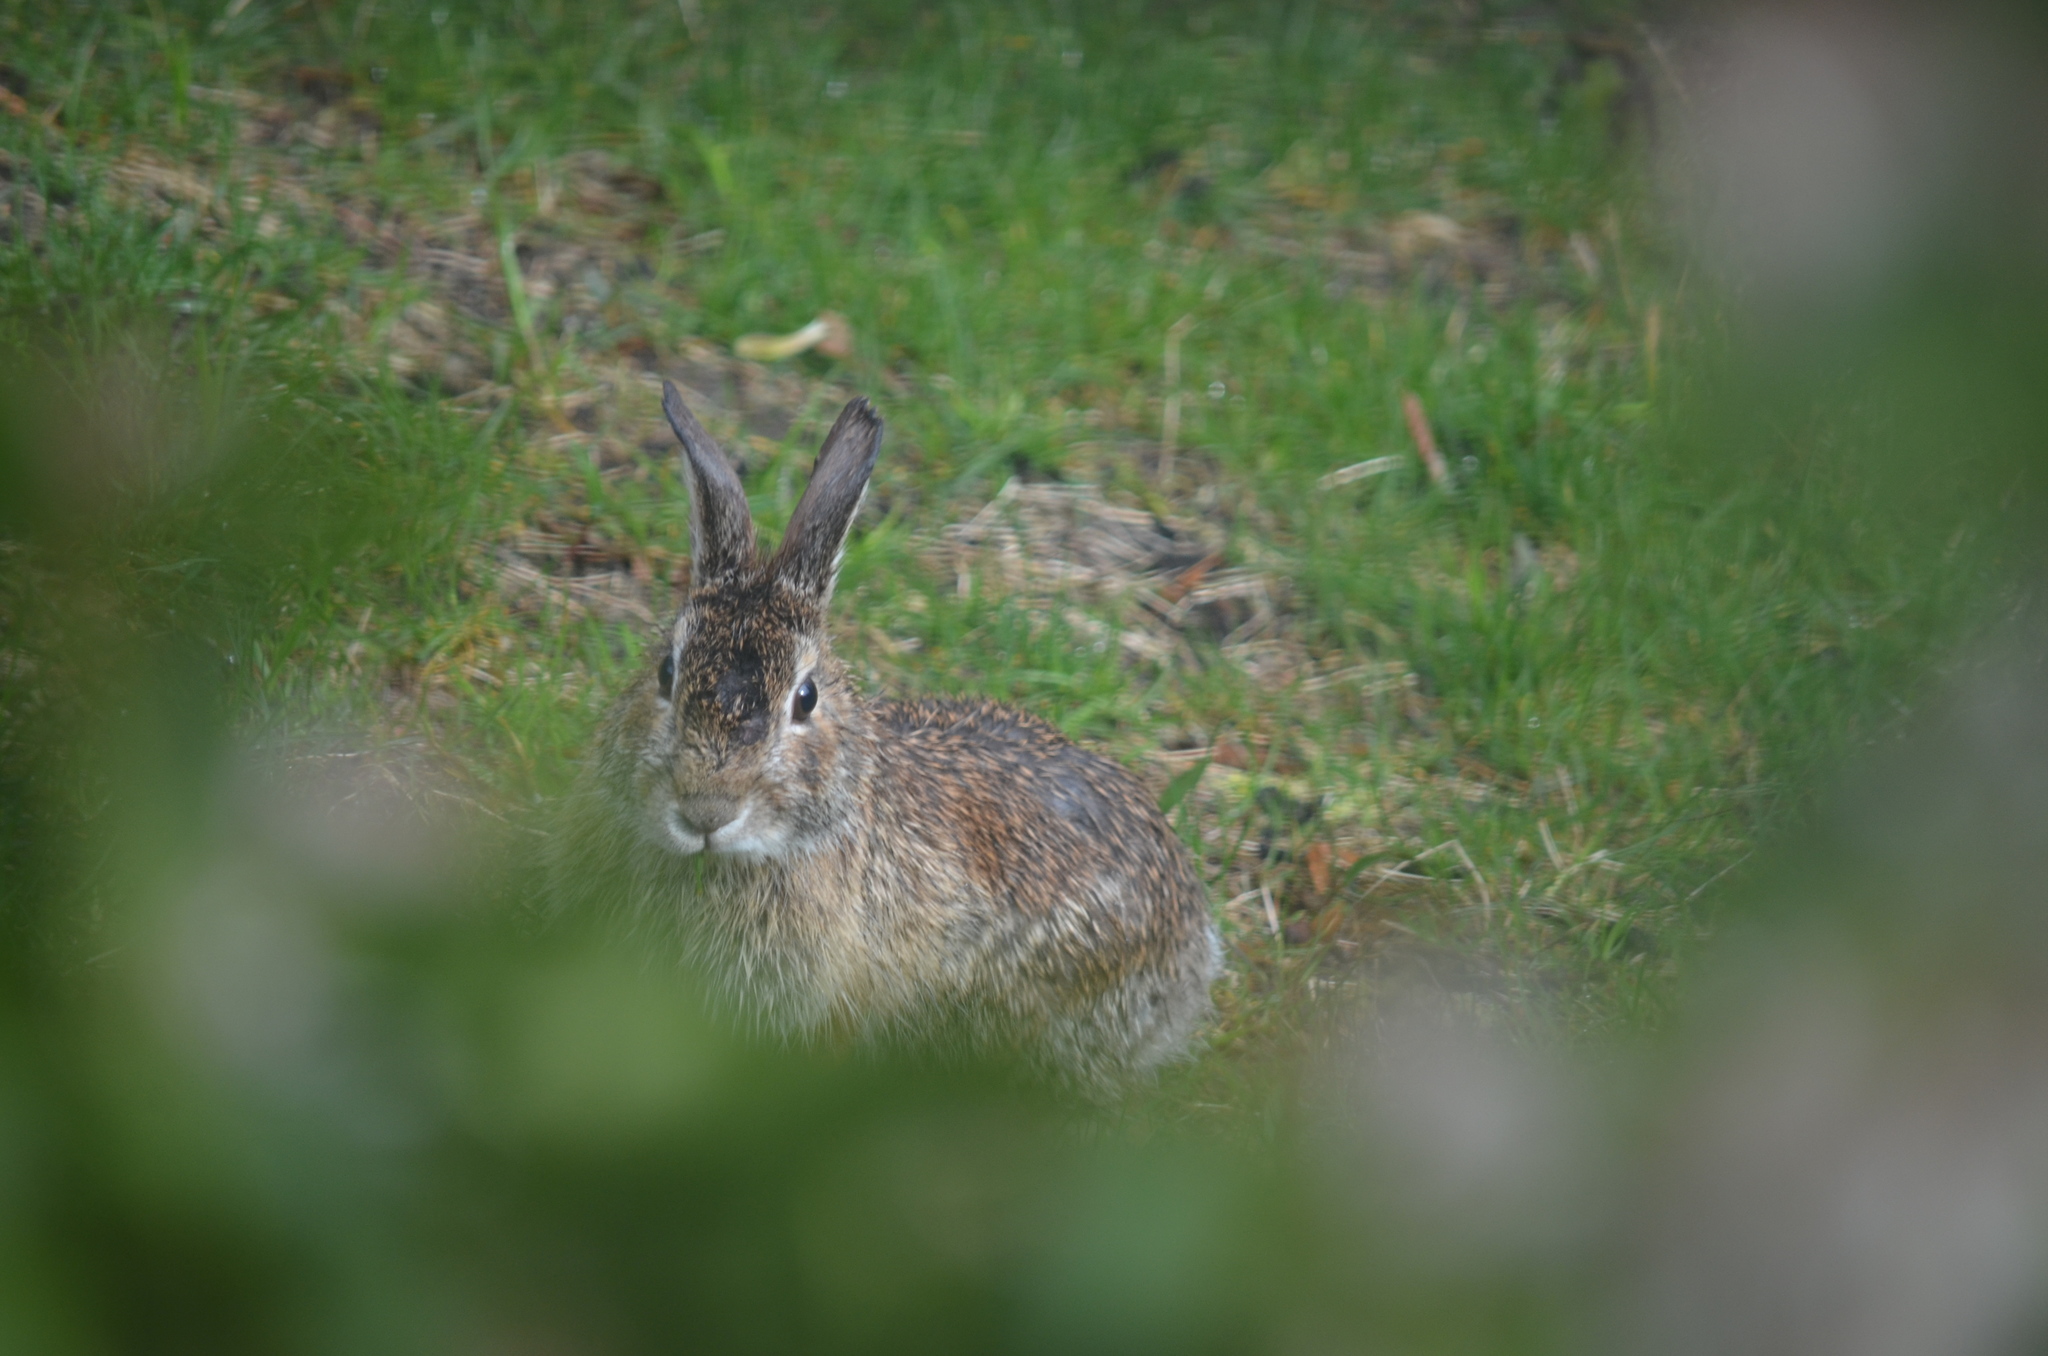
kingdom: Animalia
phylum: Chordata
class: Mammalia
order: Lagomorpha
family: Leporidae
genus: Sylvilagus
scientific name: Sylvilagus floridanus
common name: Eastern cottontail
